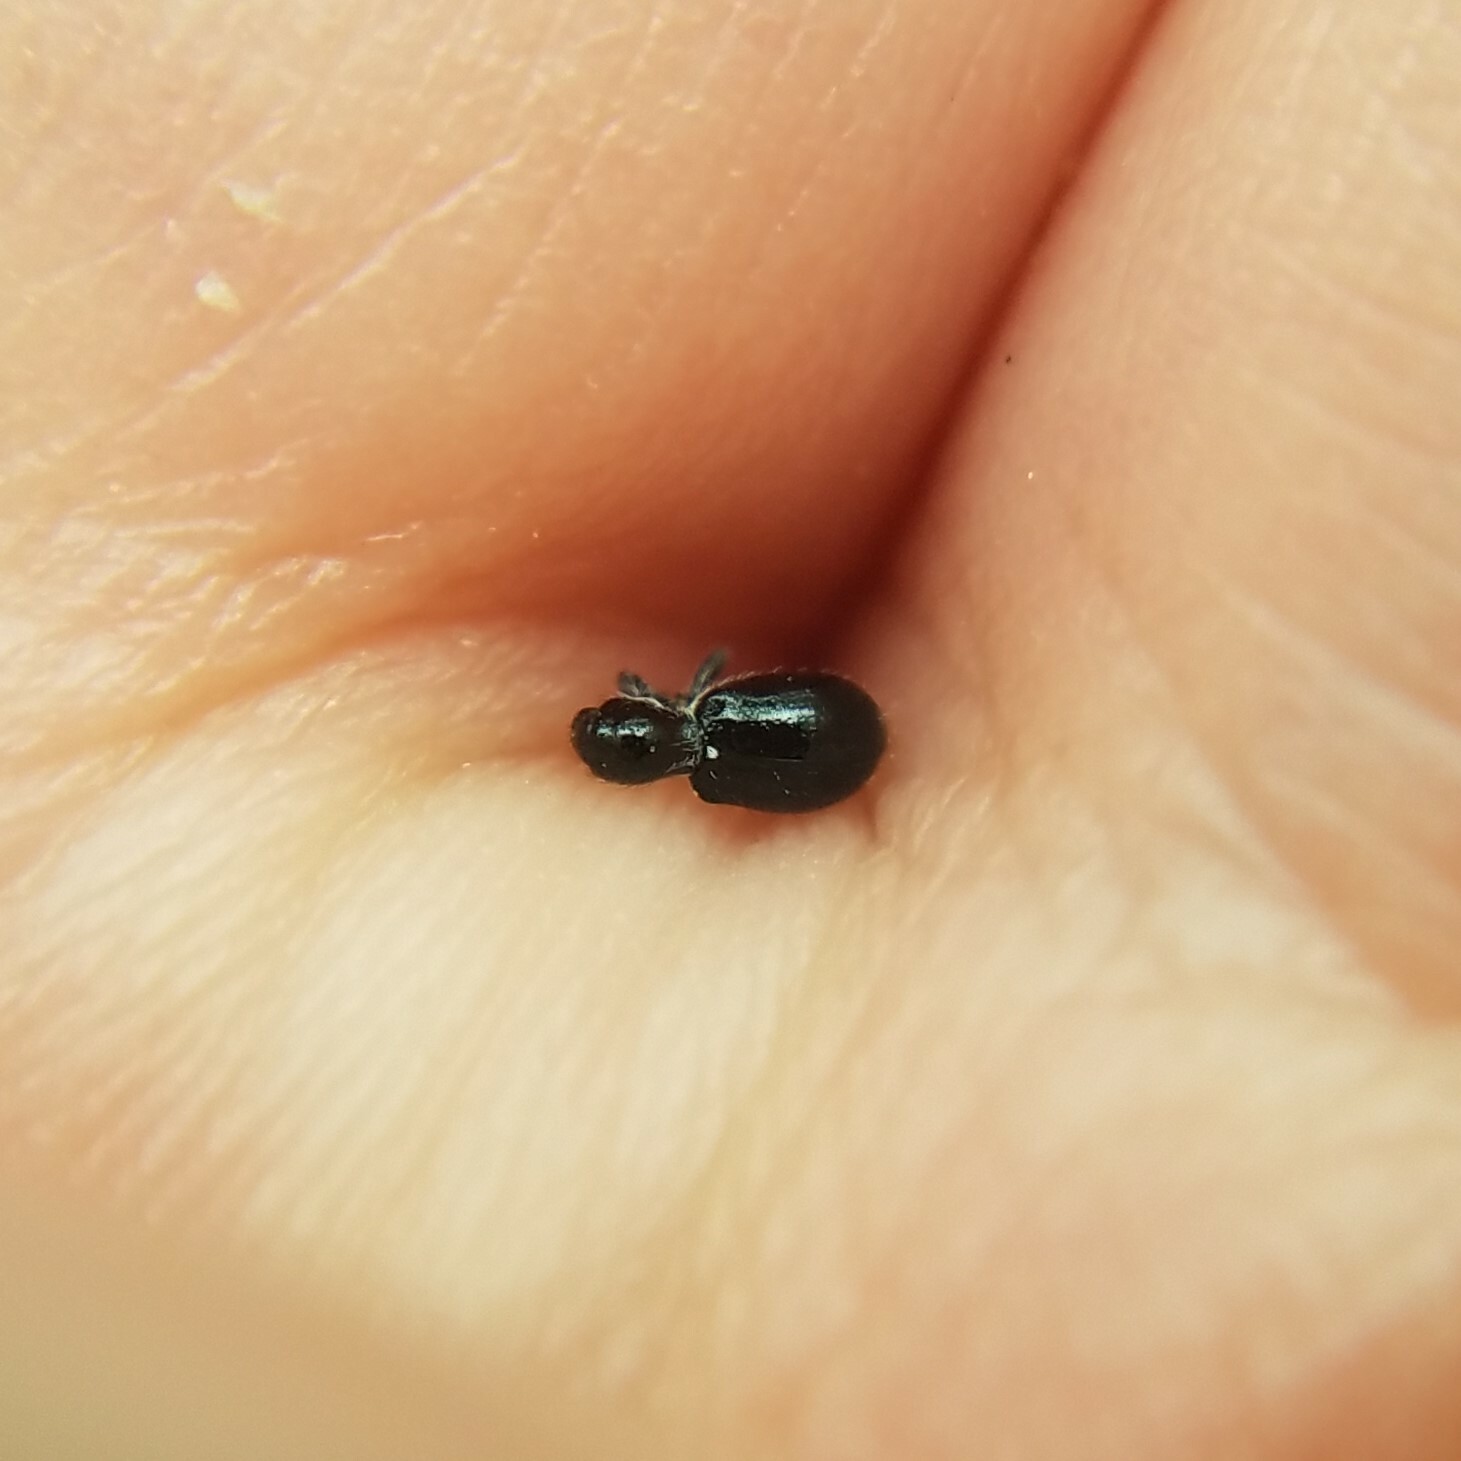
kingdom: Animalia
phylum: Arthropoda
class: Insecta
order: Coleoptera
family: Curculionidae
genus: Otidocephalus
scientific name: Otidocephalus chevrolatii
